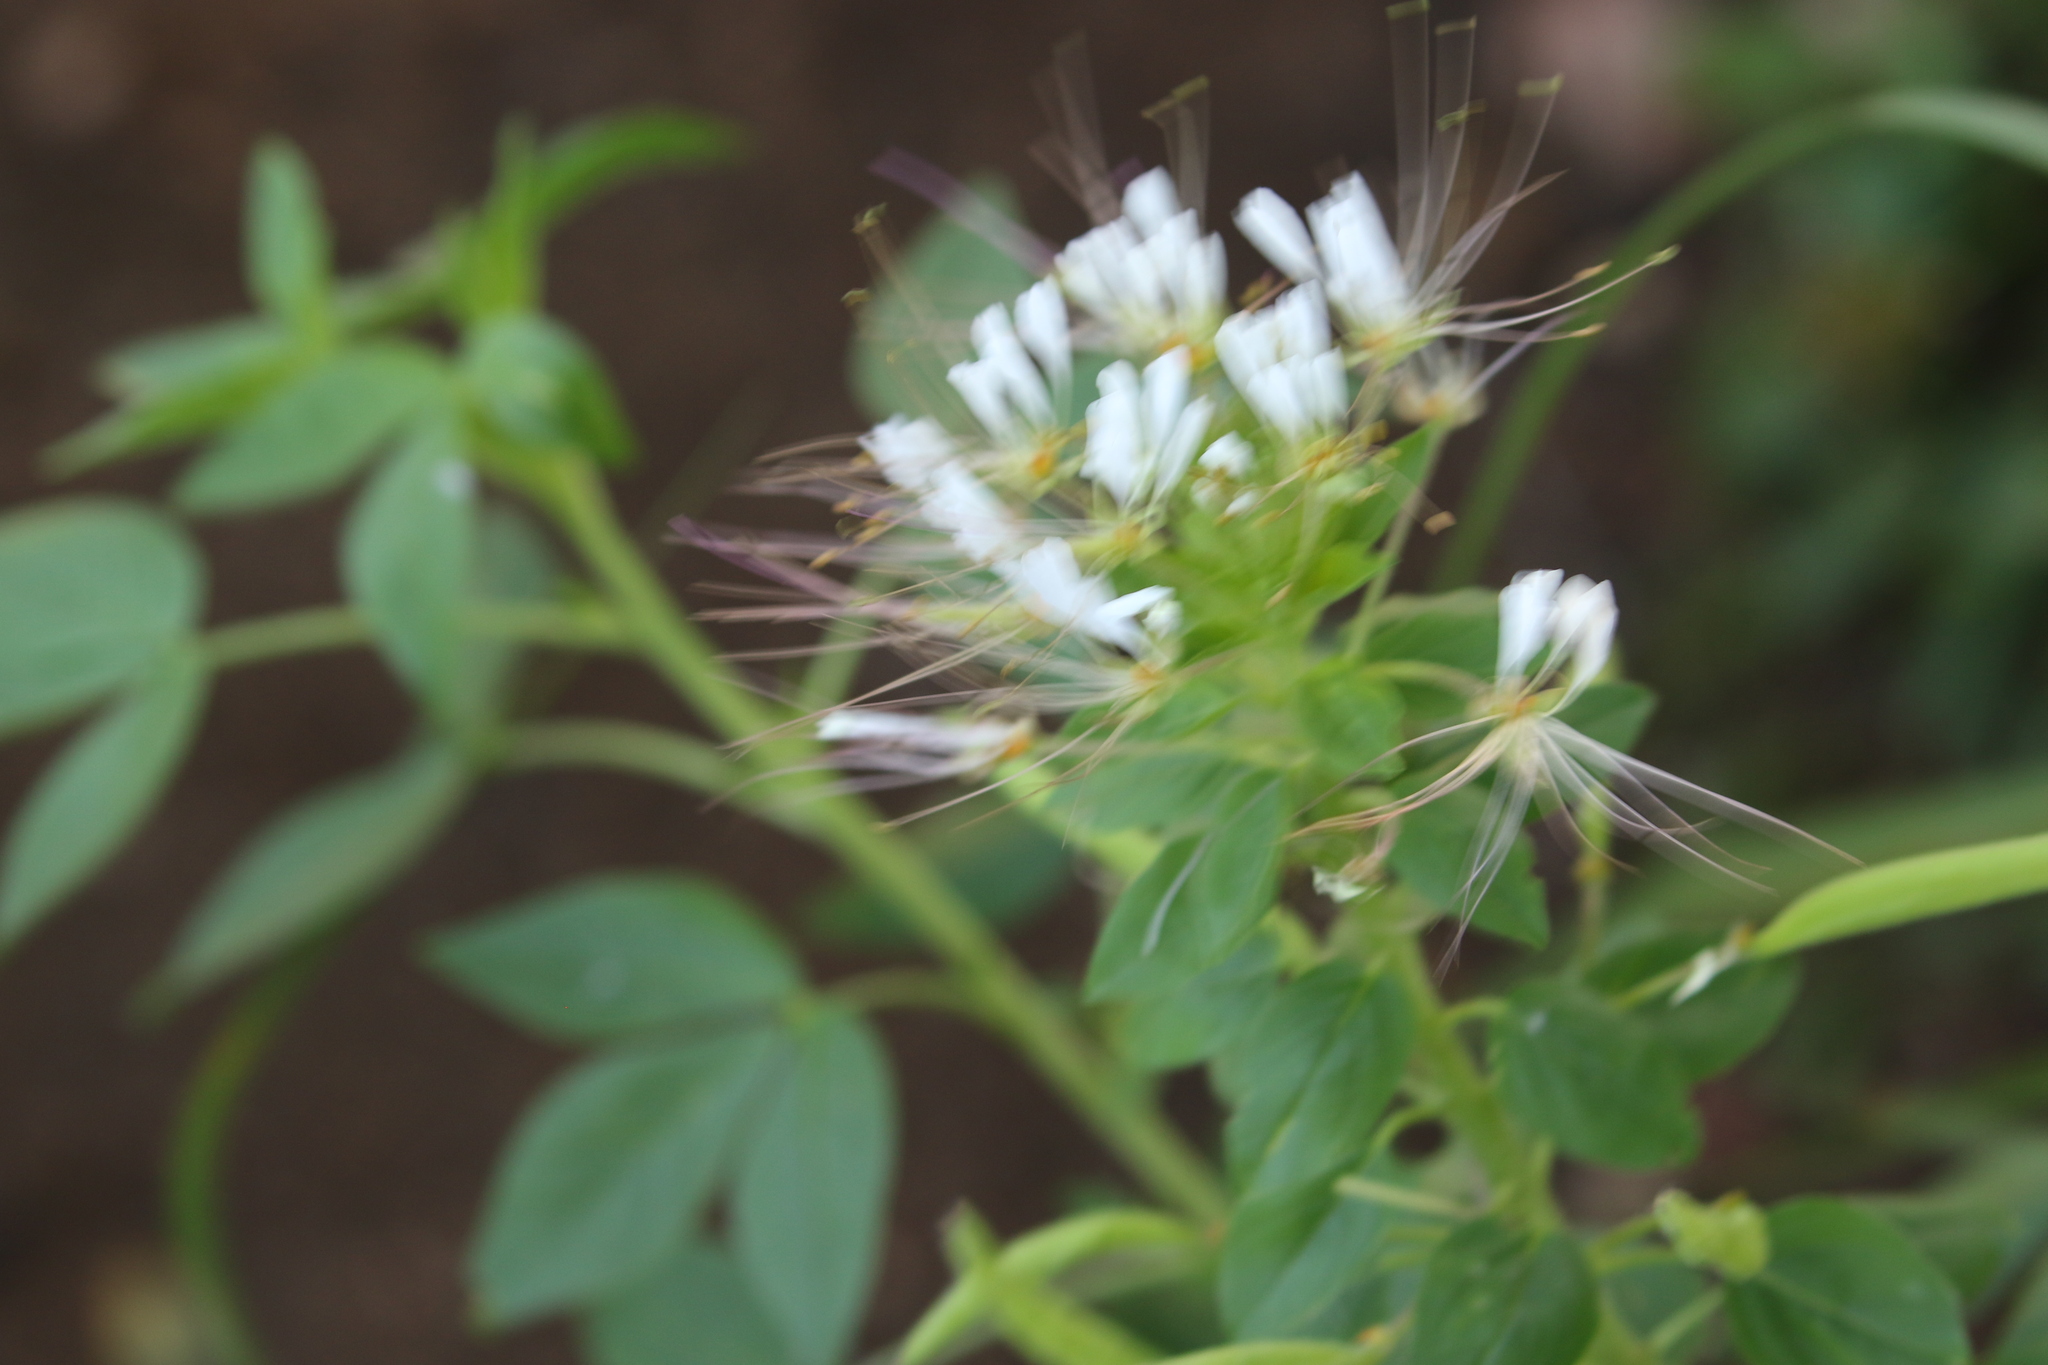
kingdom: Plantae
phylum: Tracheophyta
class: Magnoliopsida
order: Brassicales
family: Cleomaceae
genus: Polanisia
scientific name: Polanisia dodecandra
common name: Clammyweed
